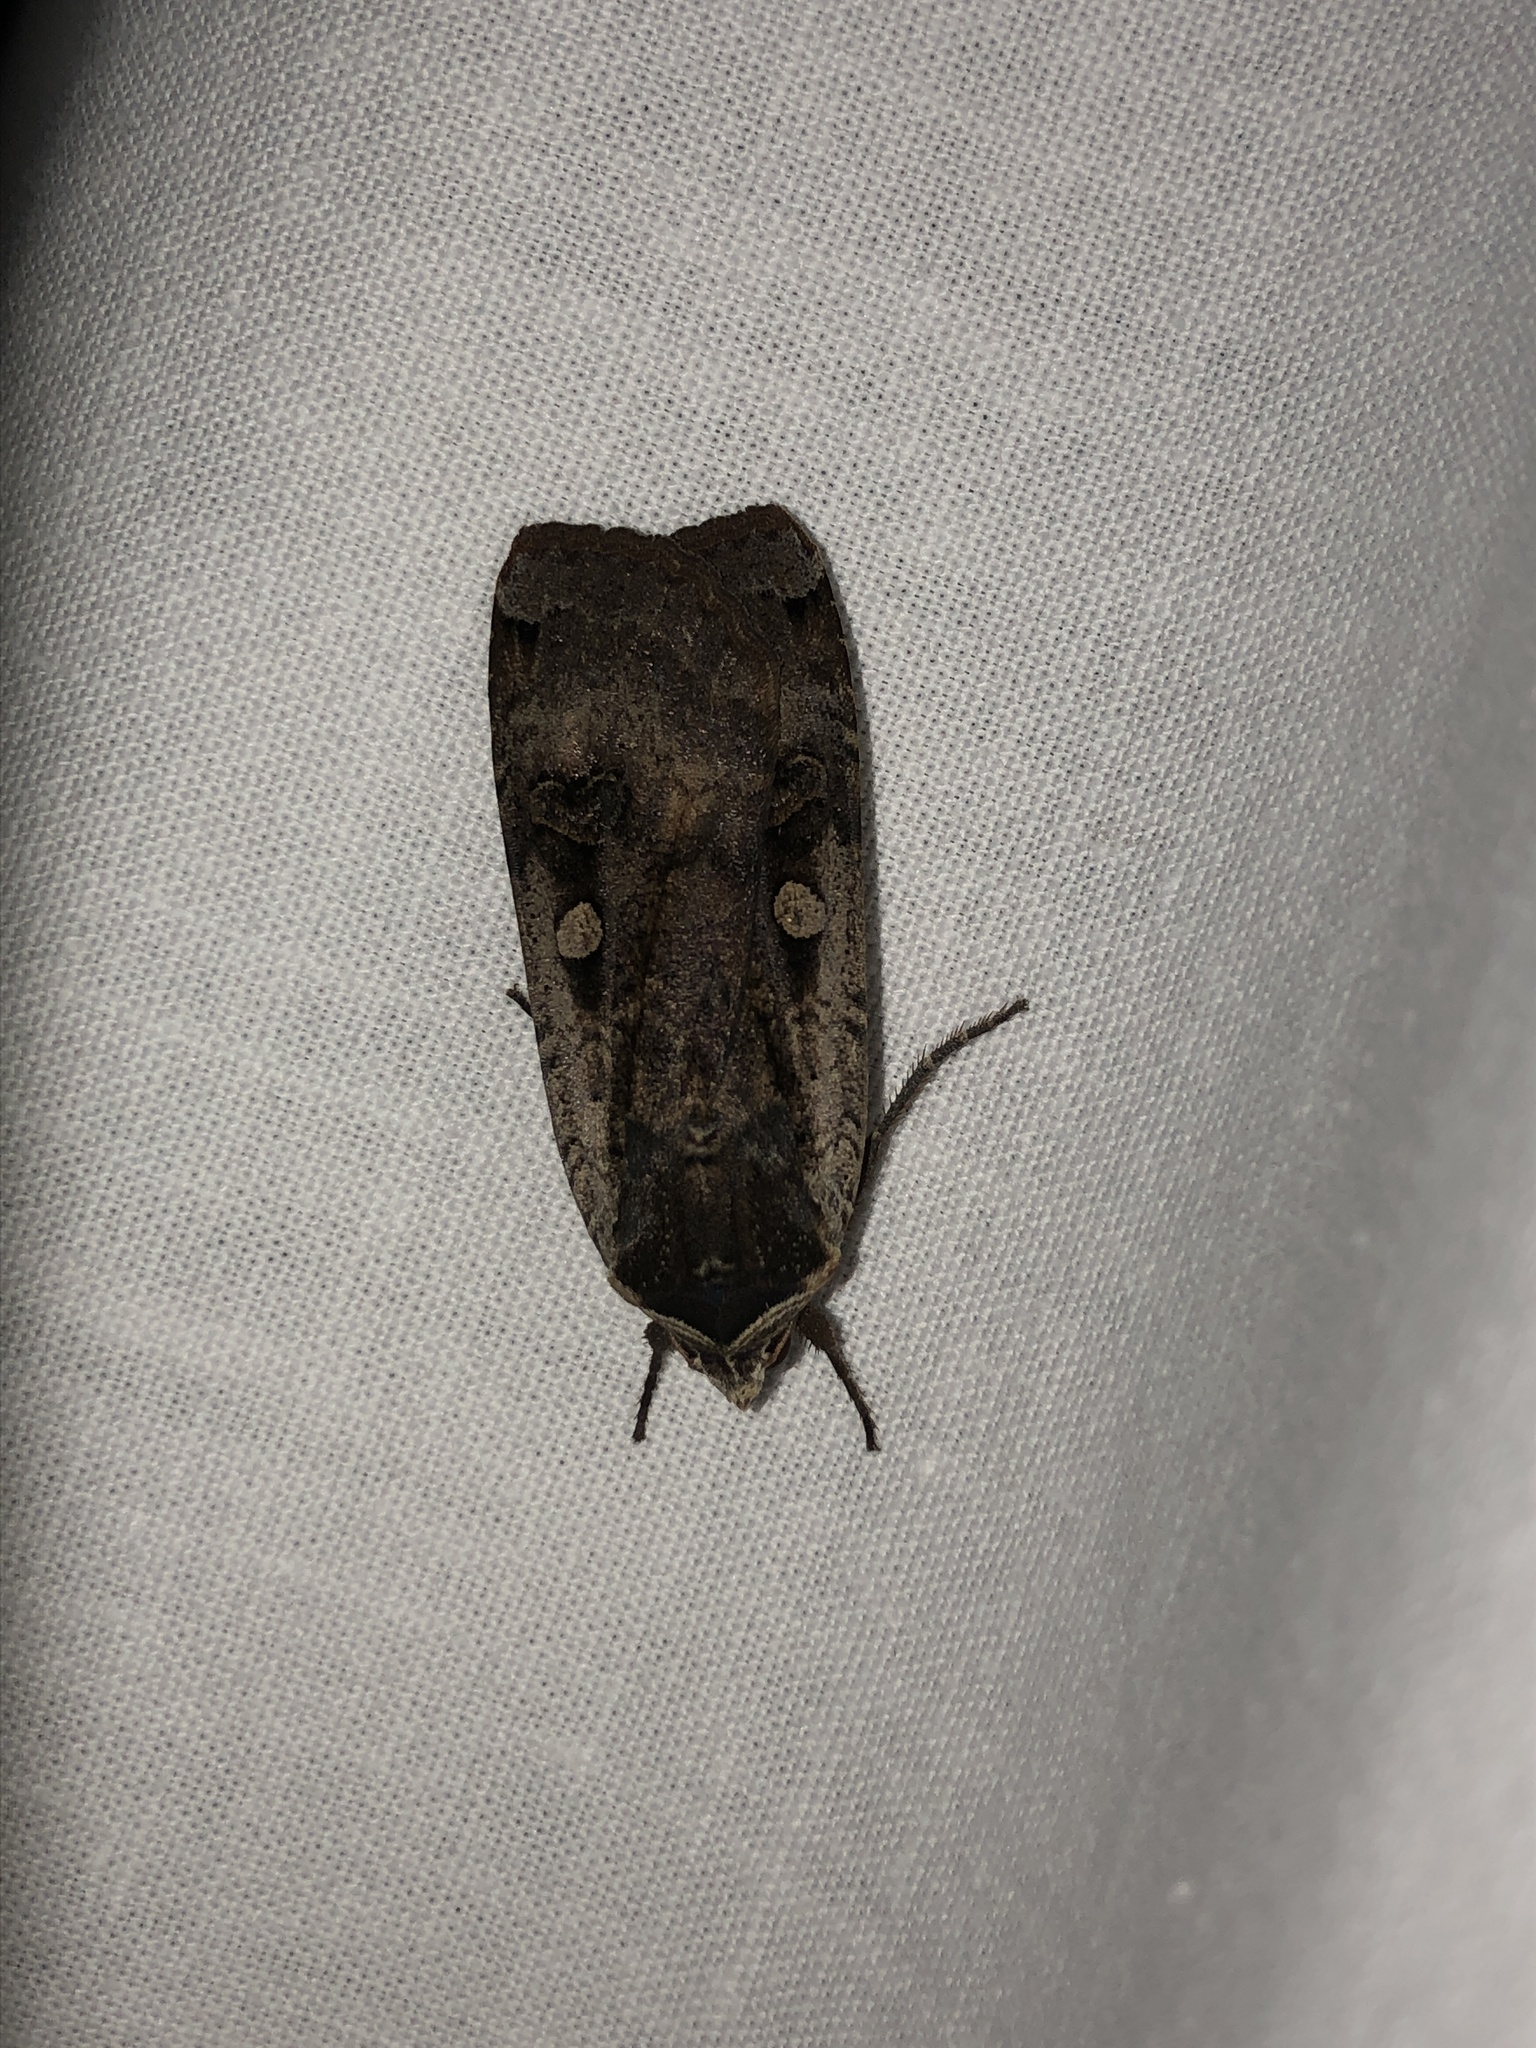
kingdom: Animalia
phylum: Arthropoda
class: Insecta
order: Lepidoptera
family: Noctuidae
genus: Noctua
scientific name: Noctua pronuba
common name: Large yellow underwing
